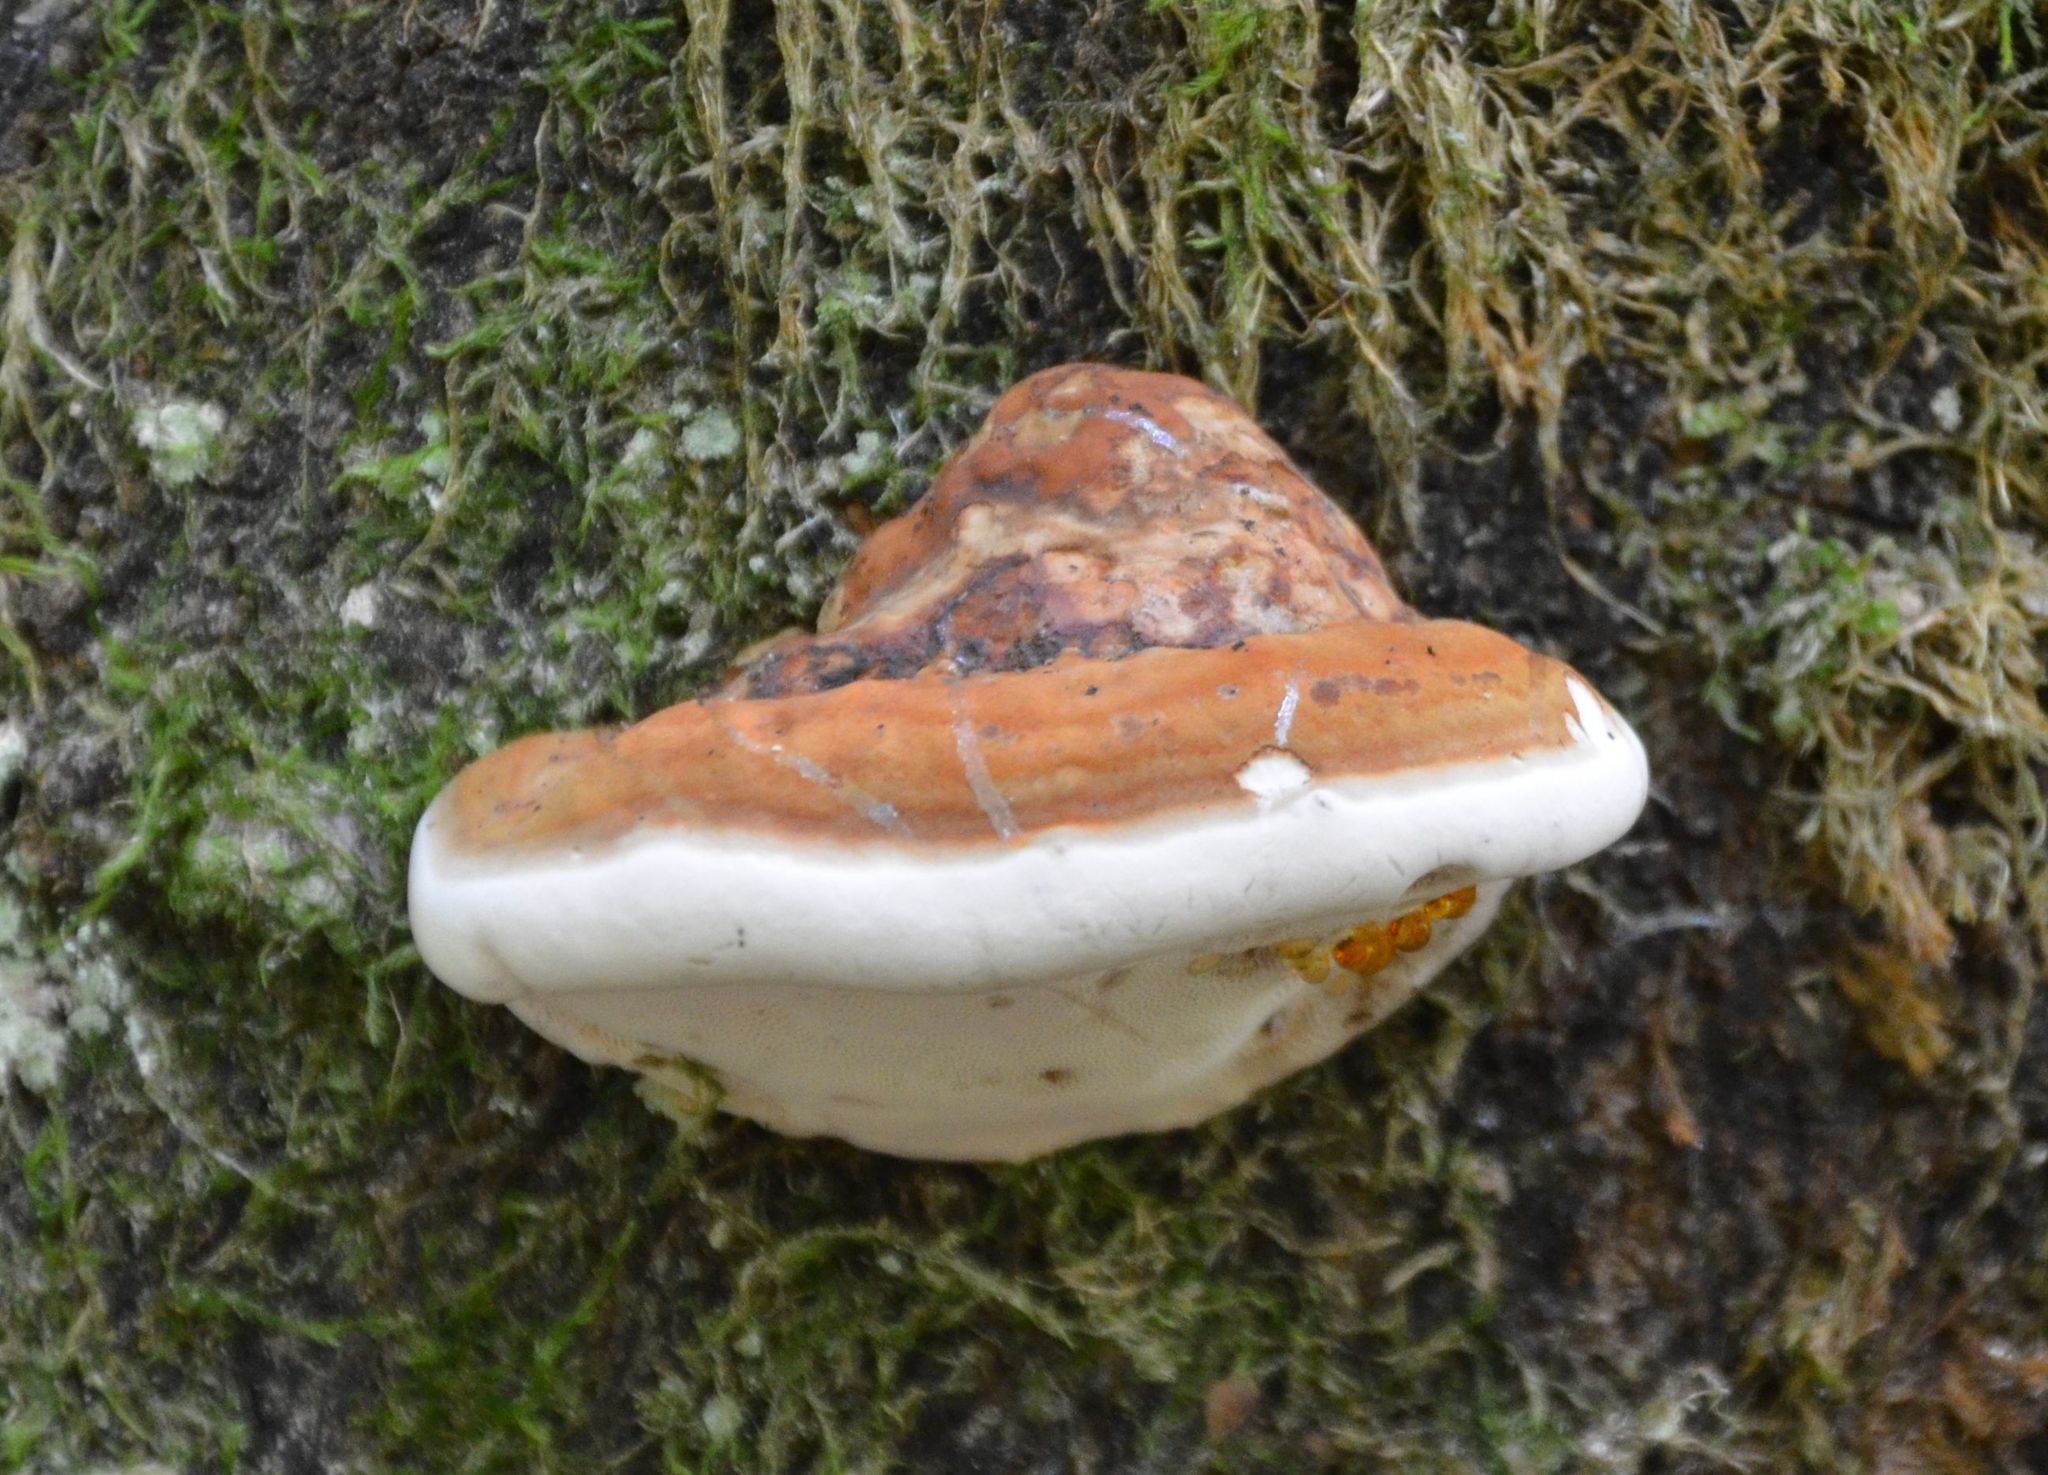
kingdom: Fungi
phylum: Basidiomycota
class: Agaricomycetes
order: Polyporales
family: Fomitopsidaceae
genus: Fomitopsis
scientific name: Fomitopsis pinicola
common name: Red-belted bracket
